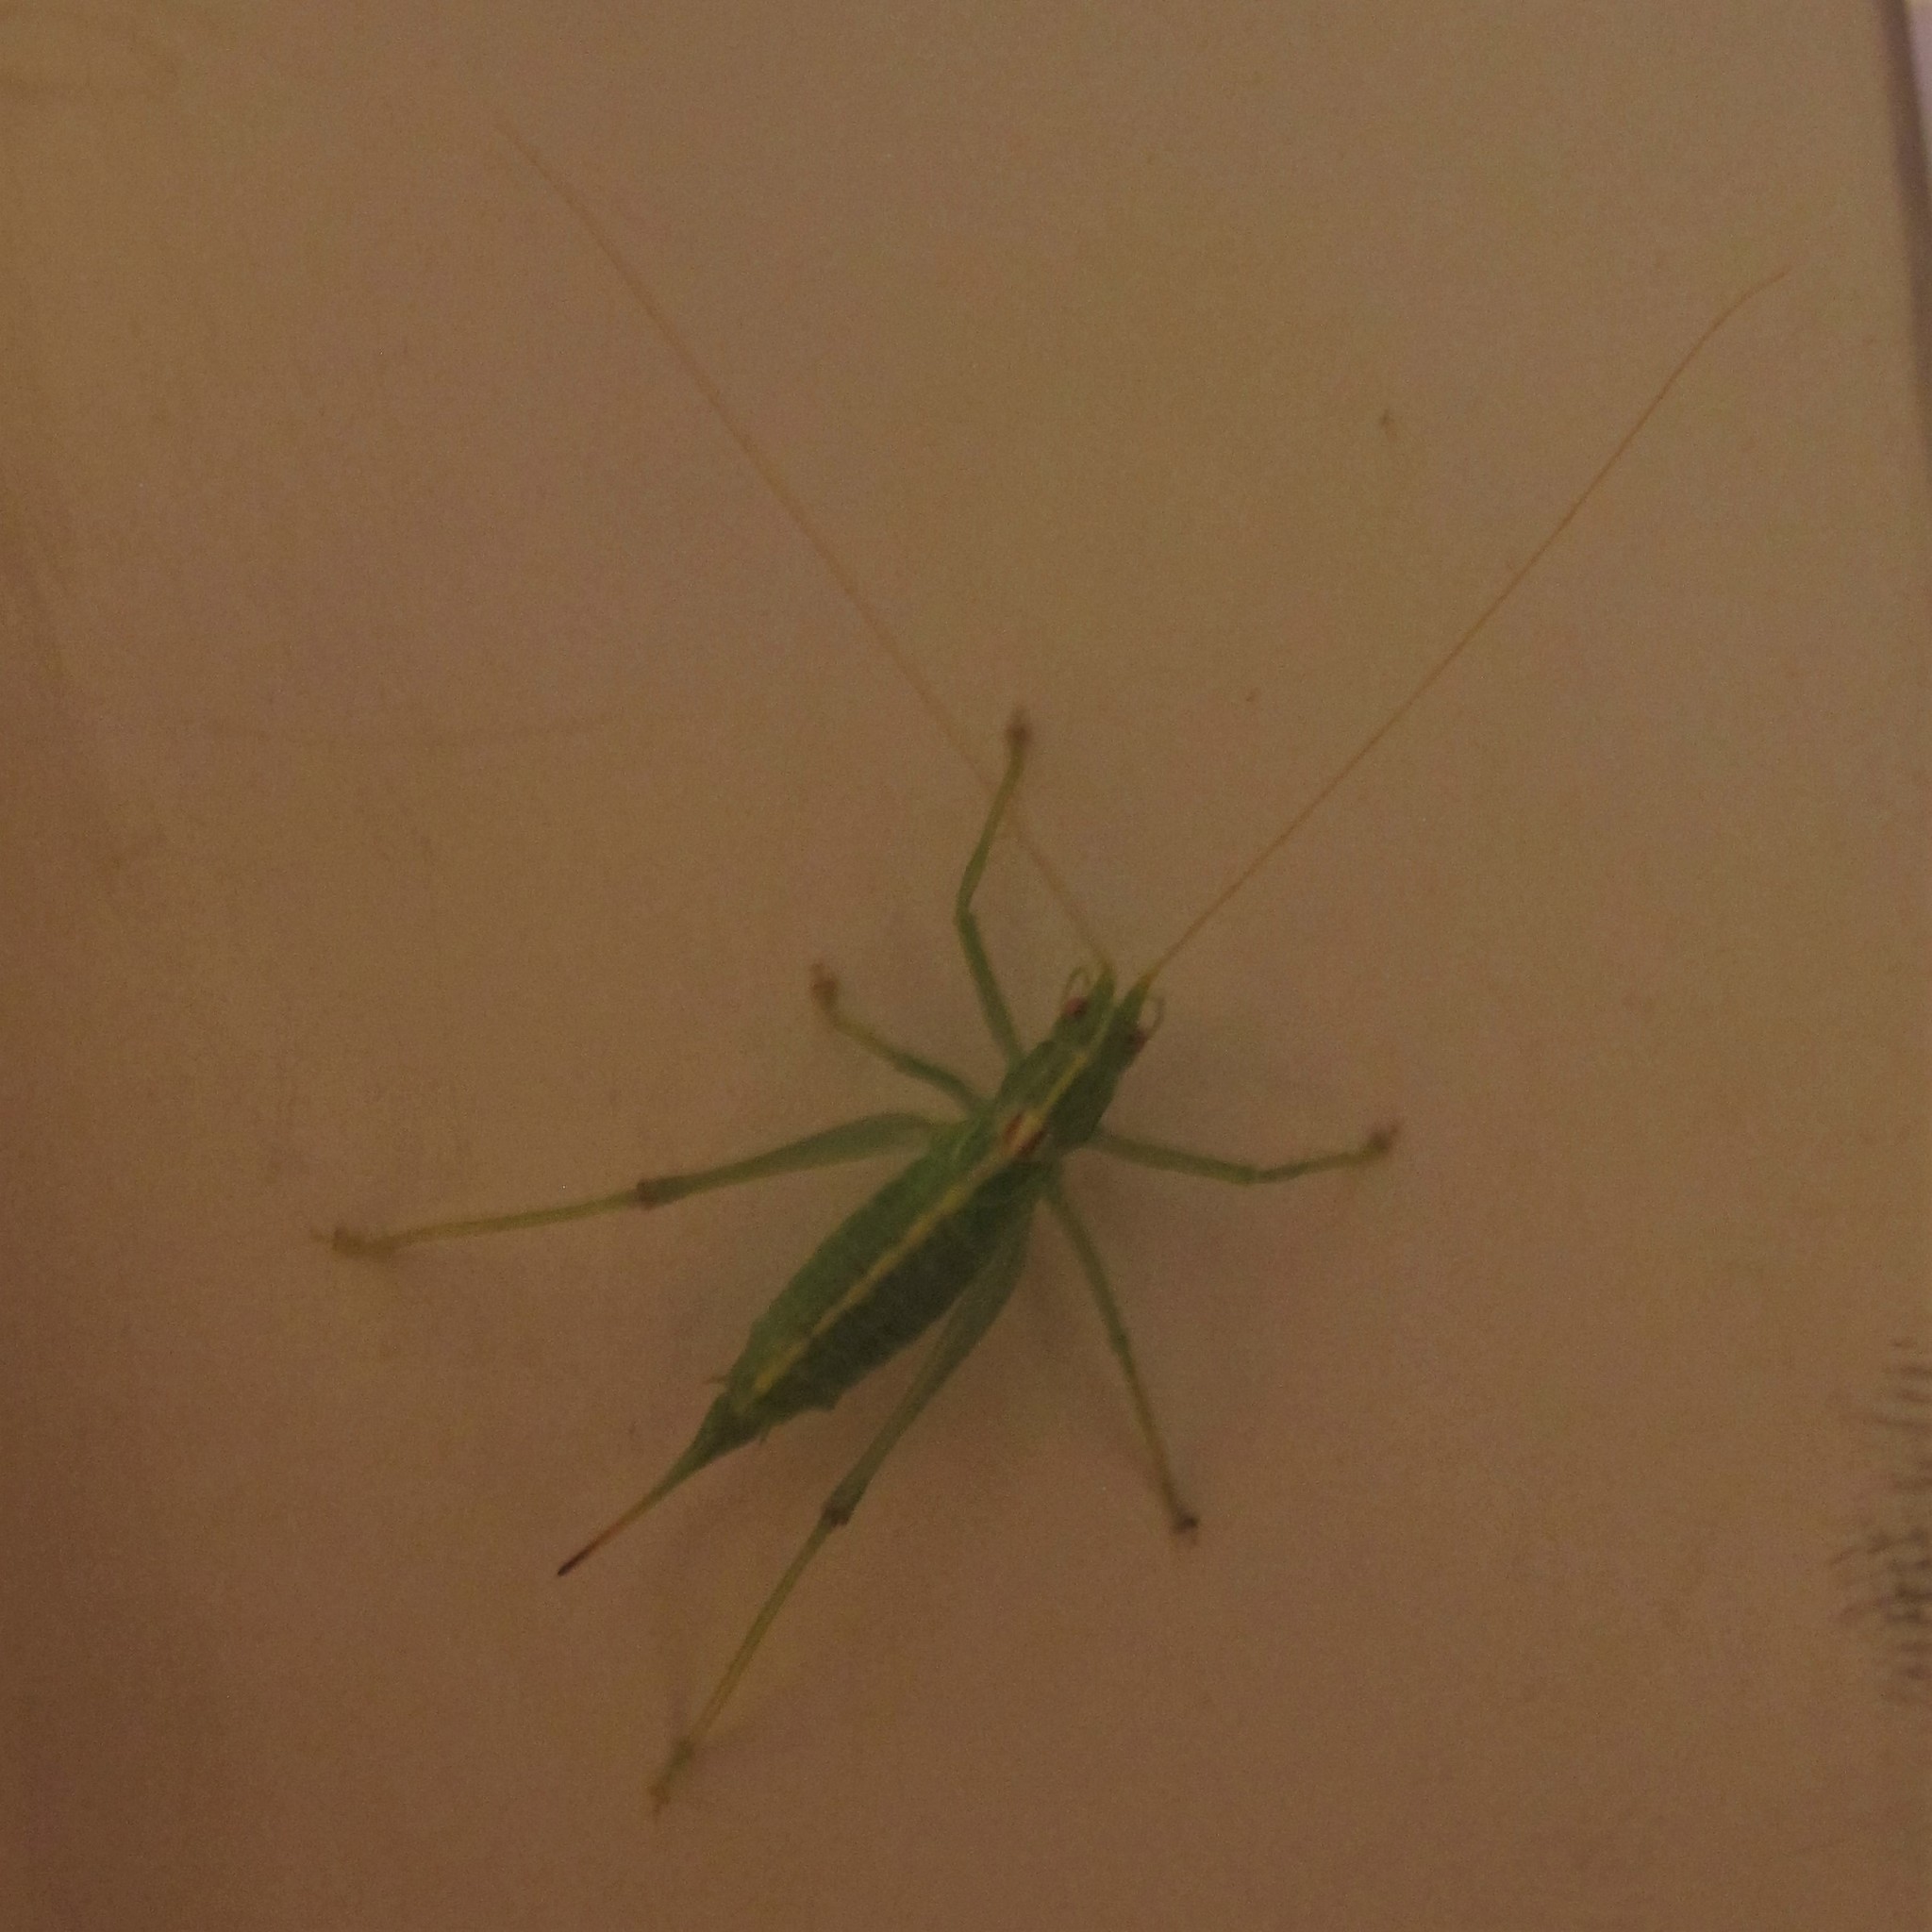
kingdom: Animalia
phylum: Arthropoda
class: Insecta
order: Orthoptera
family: Tettigoniidae
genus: Meconema
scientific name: Meconema meridionale
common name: Southern oak bush-cricket
